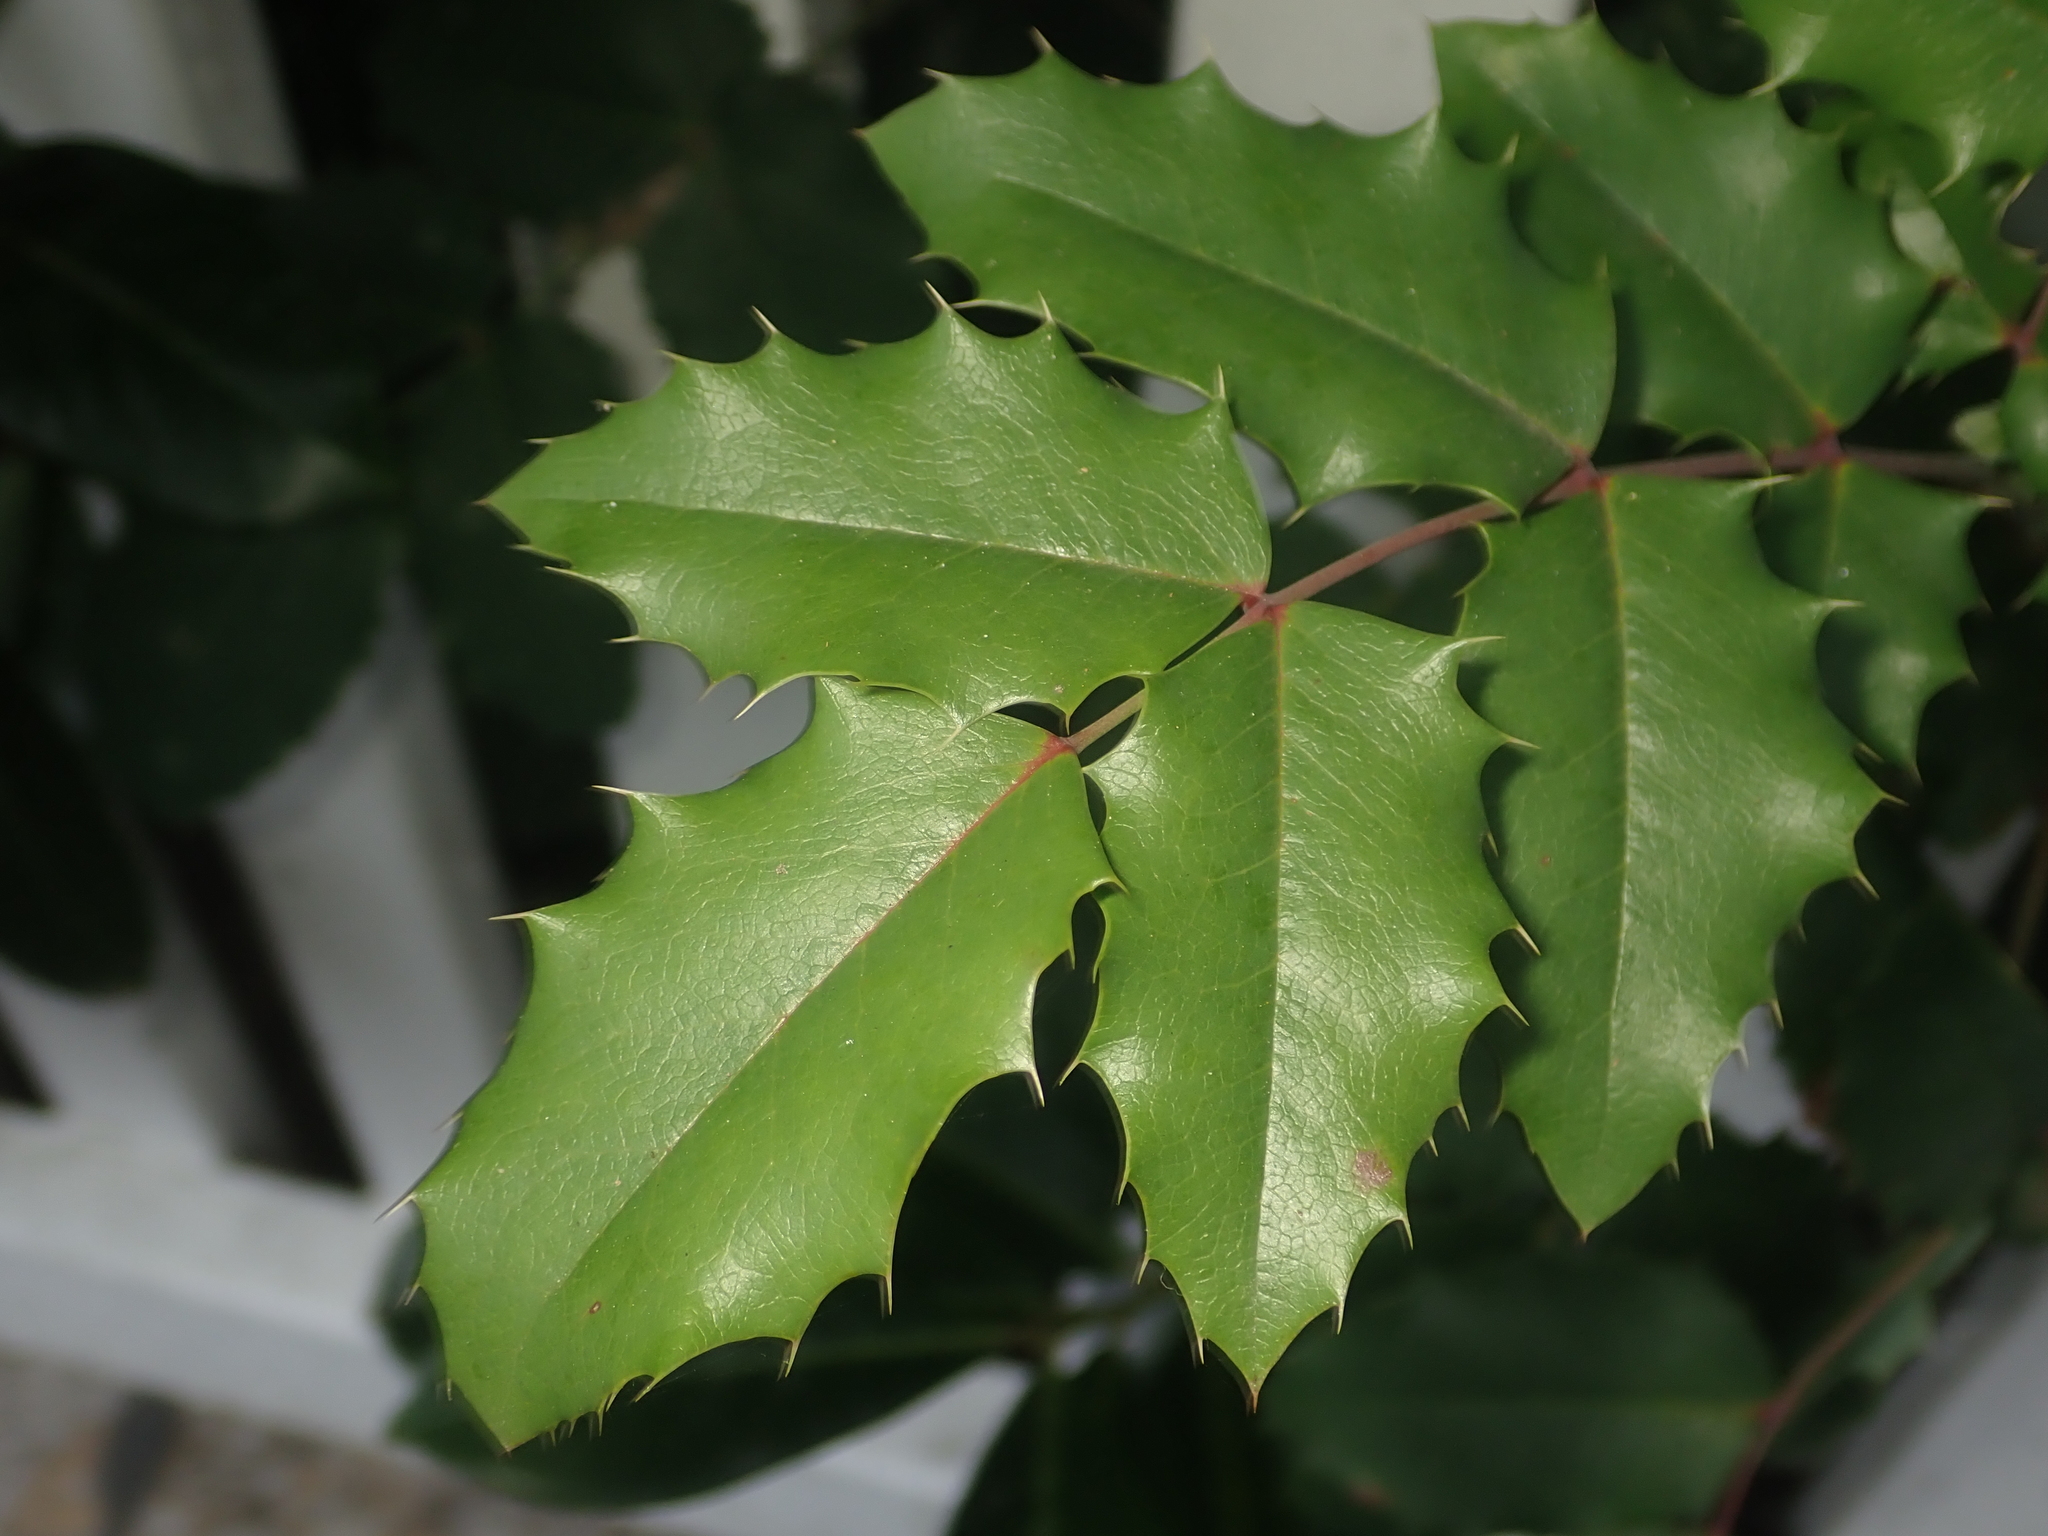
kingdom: Plantae
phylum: Tracheophyta
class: Magnoliopsida
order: Ranunculales
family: Berberidaceae
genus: Mahonia
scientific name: Mahonia aquifolium
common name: Oregon-grape
